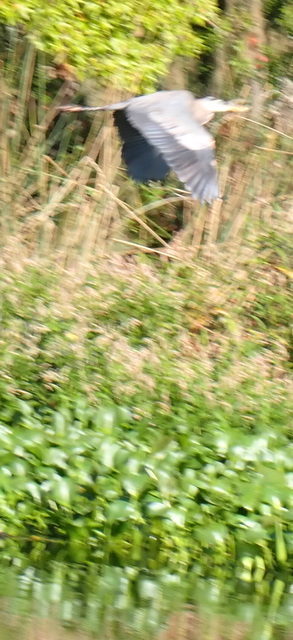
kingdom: Animalia
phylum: Chordata
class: Aves
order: Pelecaniformes
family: Ardeidae
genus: Ardea
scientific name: Ardea herodias
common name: Great blue heron
